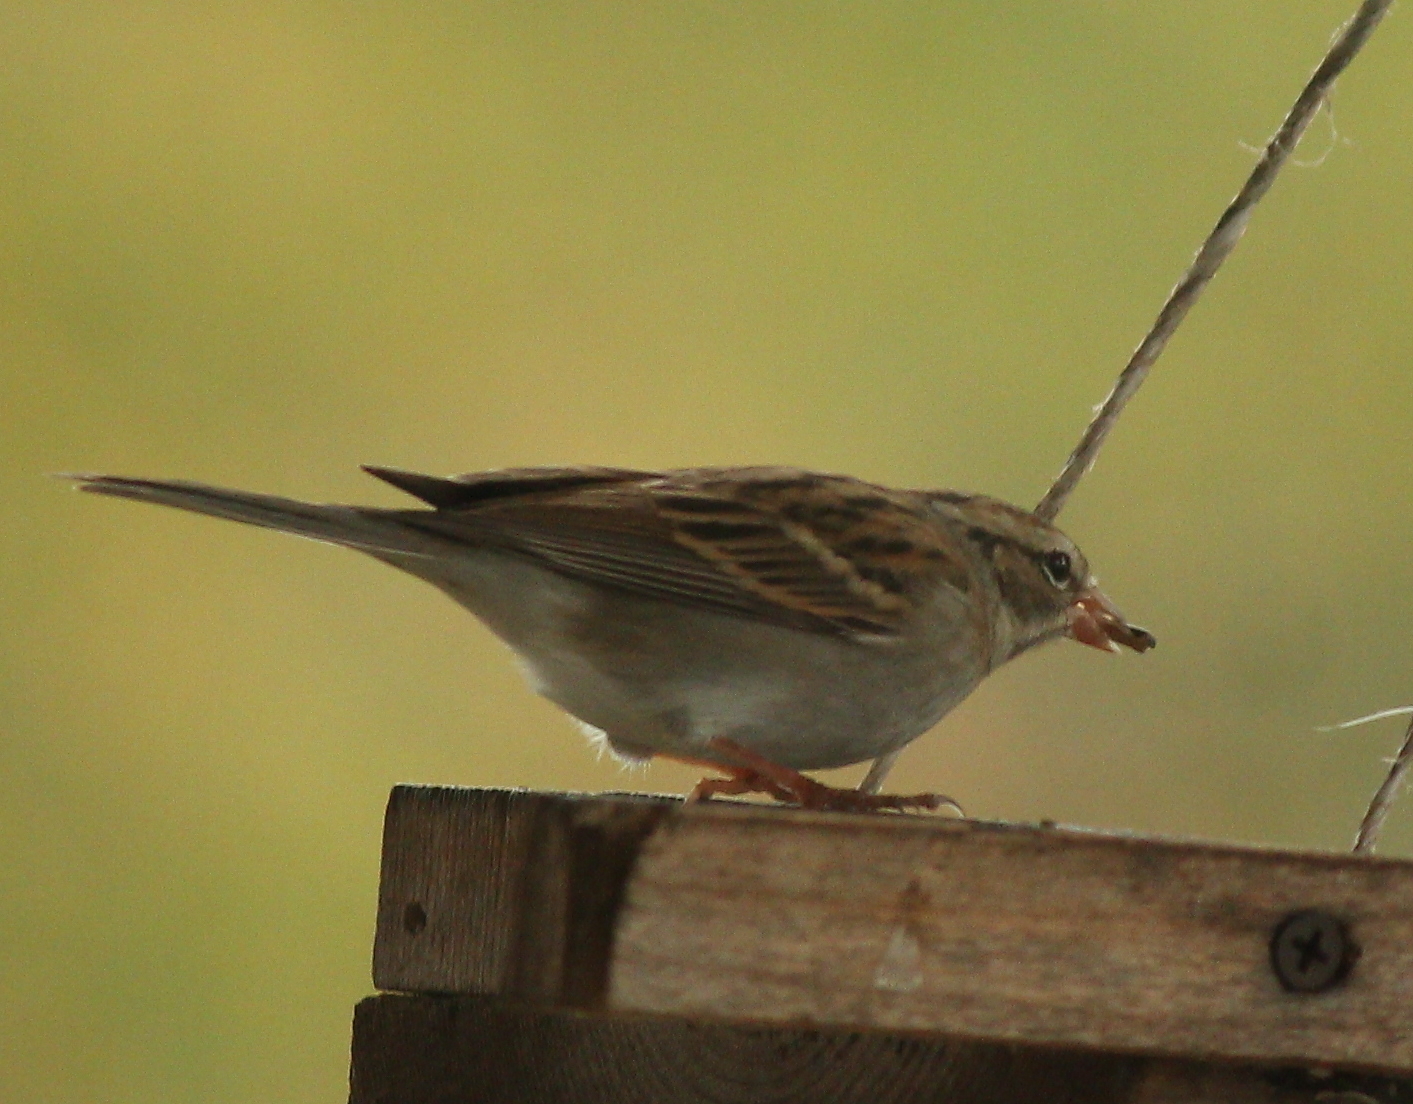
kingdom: Animalia
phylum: Chordata
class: Aves
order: Passeriformes
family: Passerellidae
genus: Spizella
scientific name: Spizella passerina
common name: Chipping sparrow
